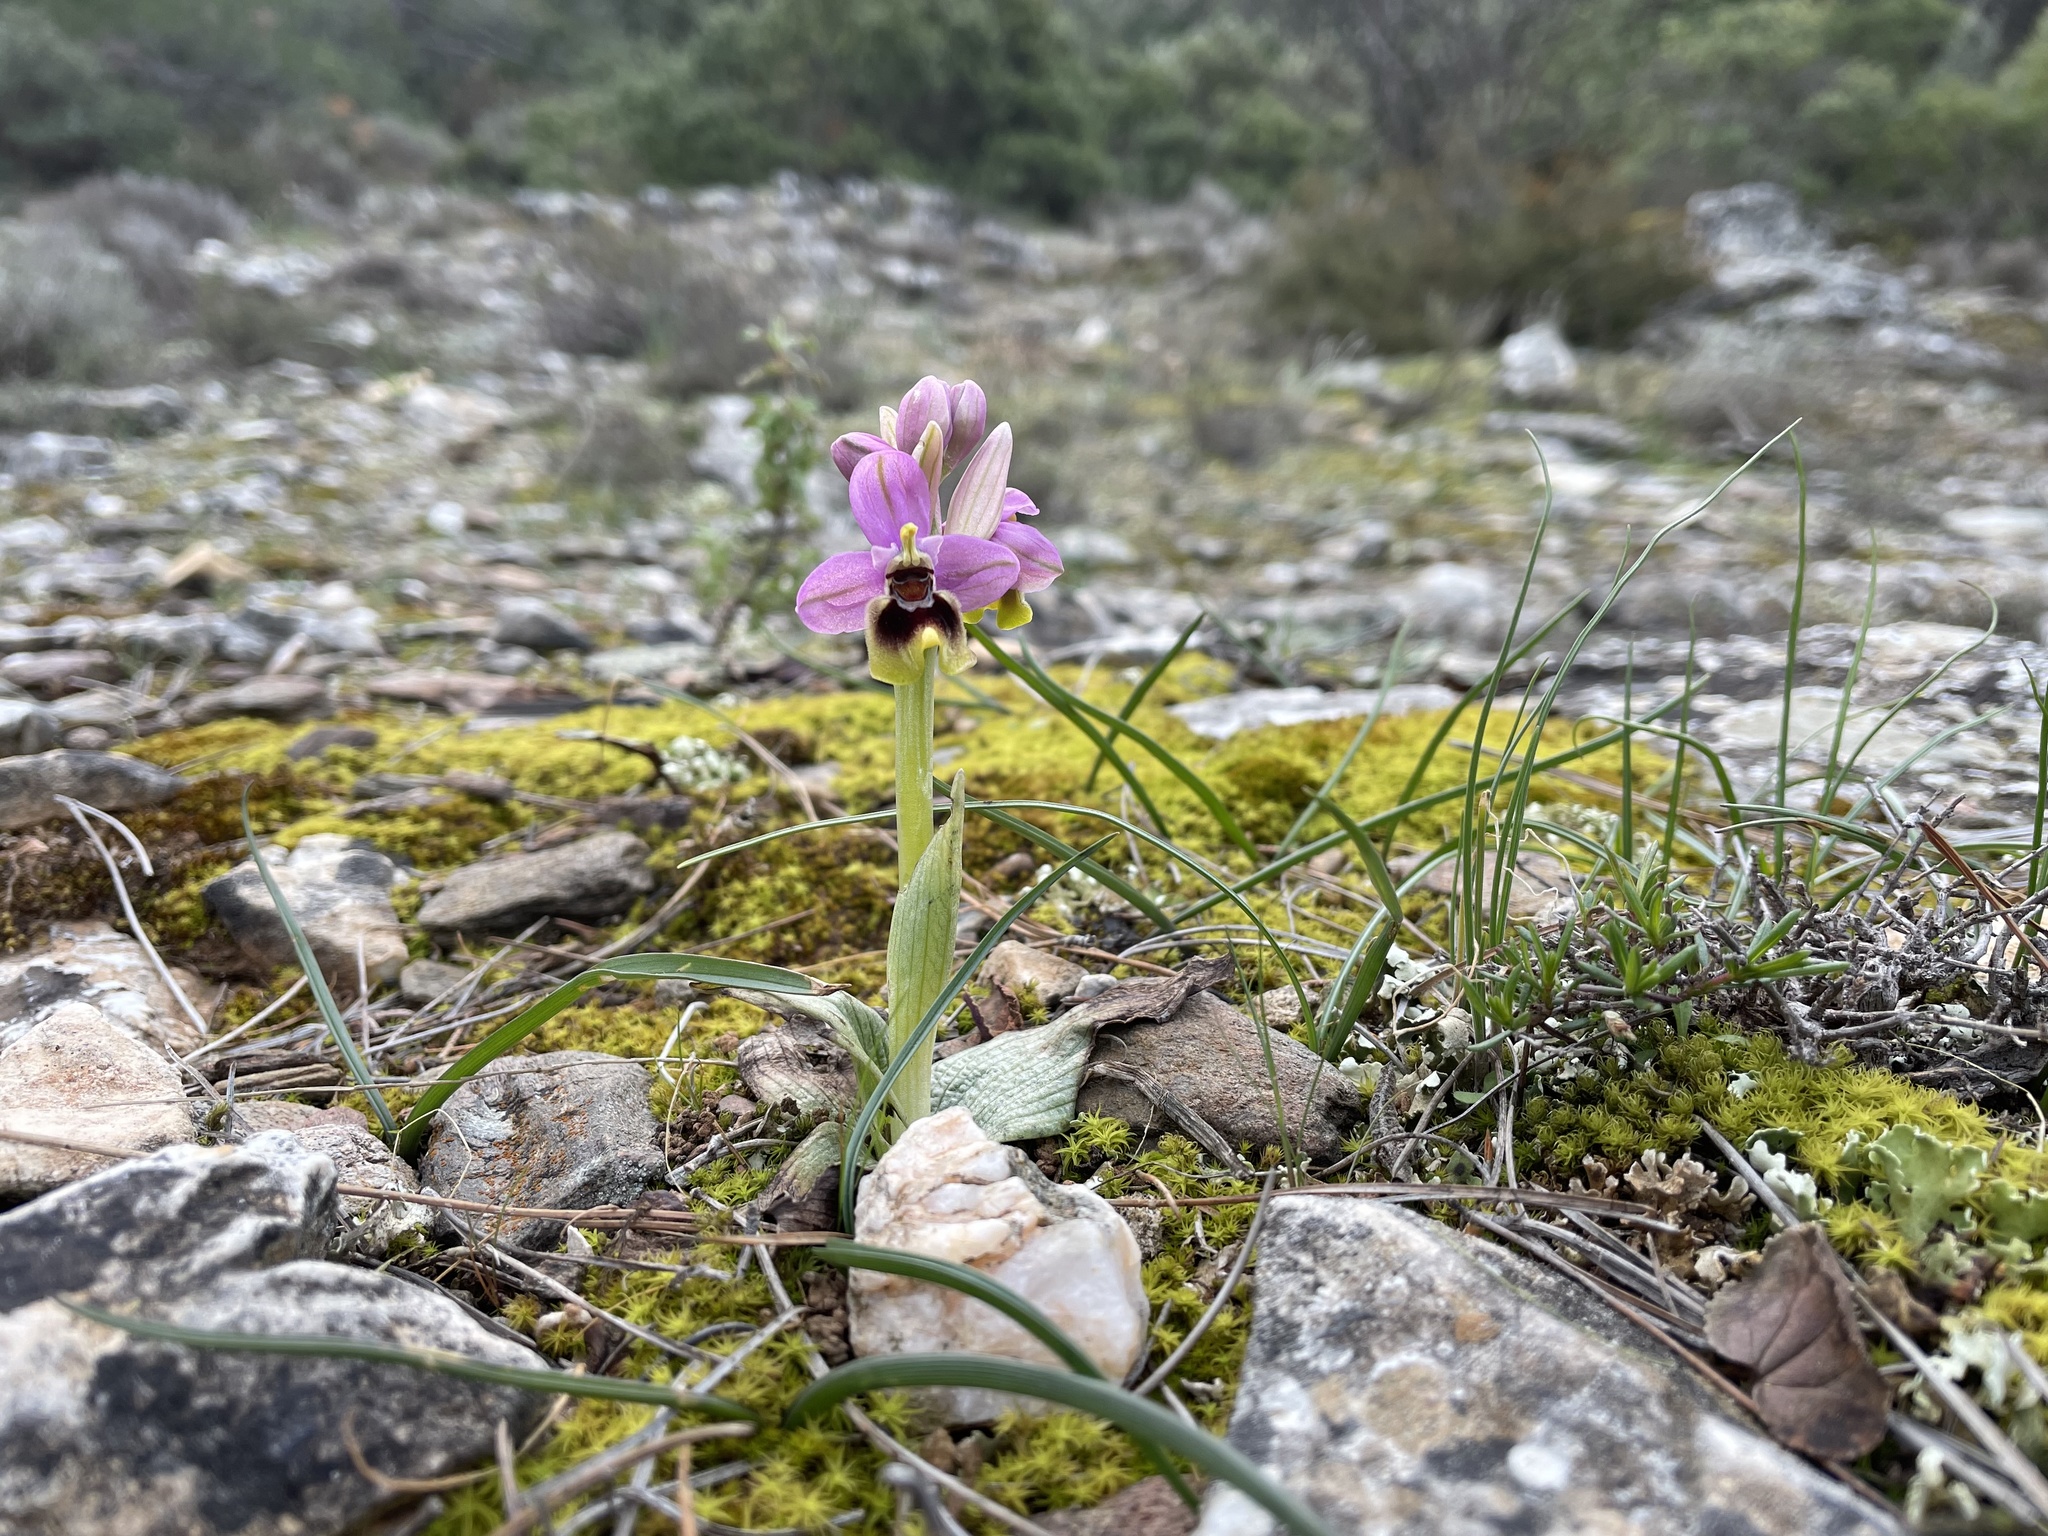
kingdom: Plantae
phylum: Tracheophyta
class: Liliopsida
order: Asparagales
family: Orchidaceae
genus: Ophrys
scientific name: Ophrys tenthredinifera
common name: Sawfly orchid
